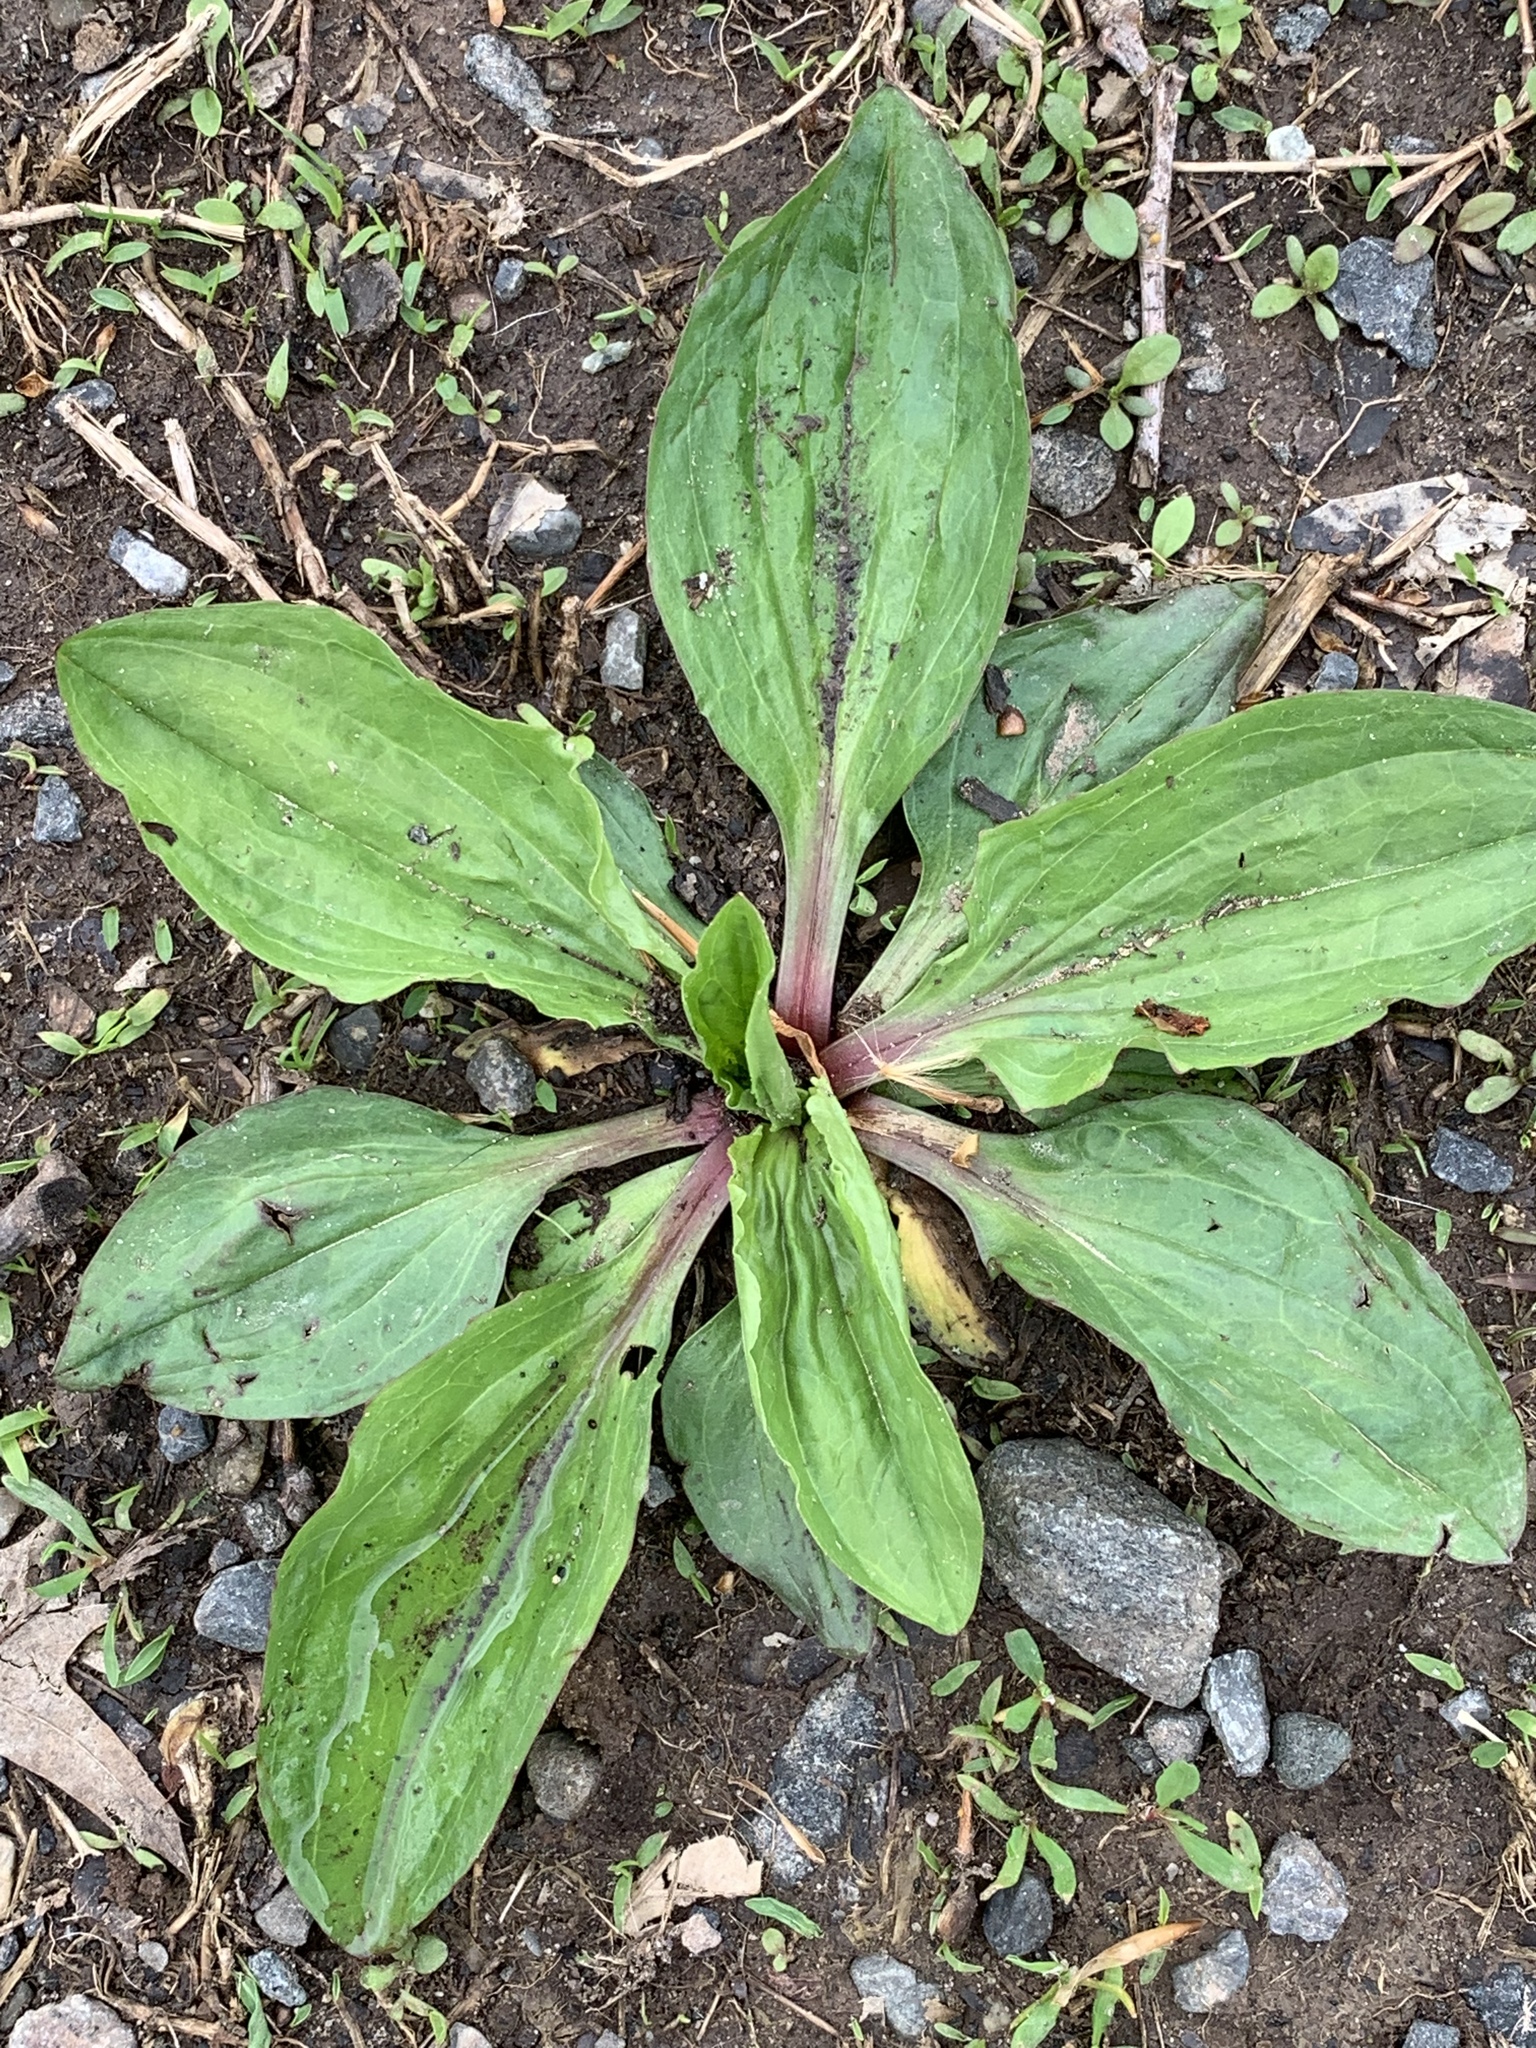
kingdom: Plantae
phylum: Tracheophyta
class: Magnoliopsida
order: Lamiales
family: Plantaginaceae
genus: Plantago
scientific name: Plantago rugelii
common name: American plantain
